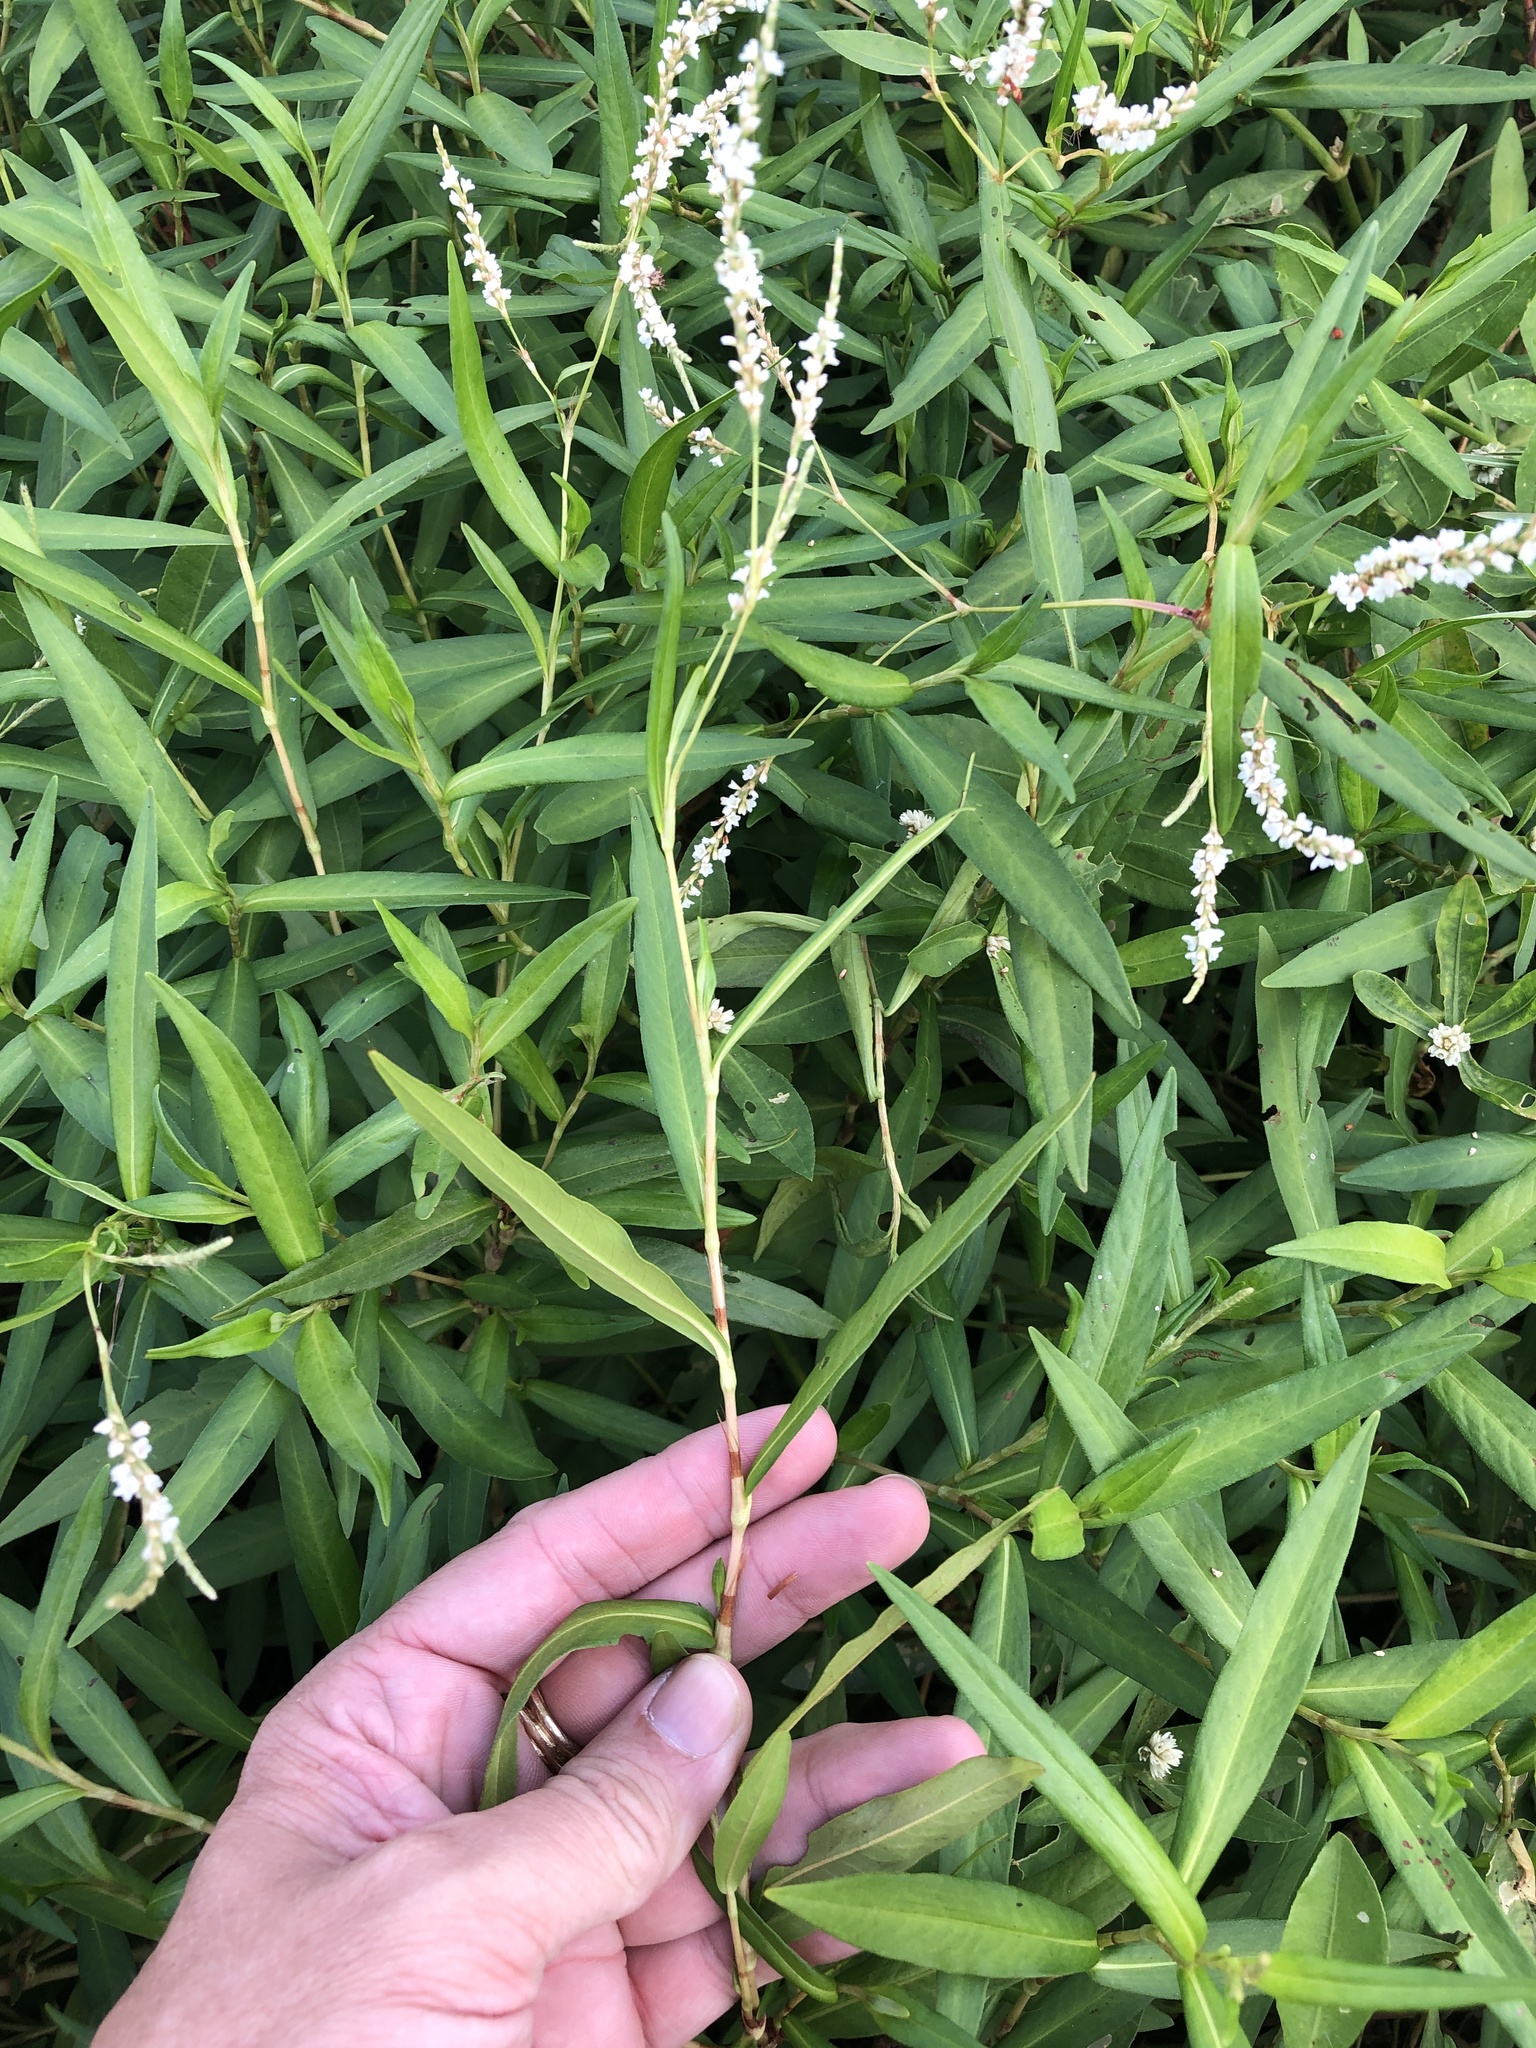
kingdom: Plantae
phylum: Tracheophyta
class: Magnoliopsida
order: Caryophyllales
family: Polygonaceae
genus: Persicaria
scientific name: Persicaria hydropiperoides
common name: Swamp smartweed
